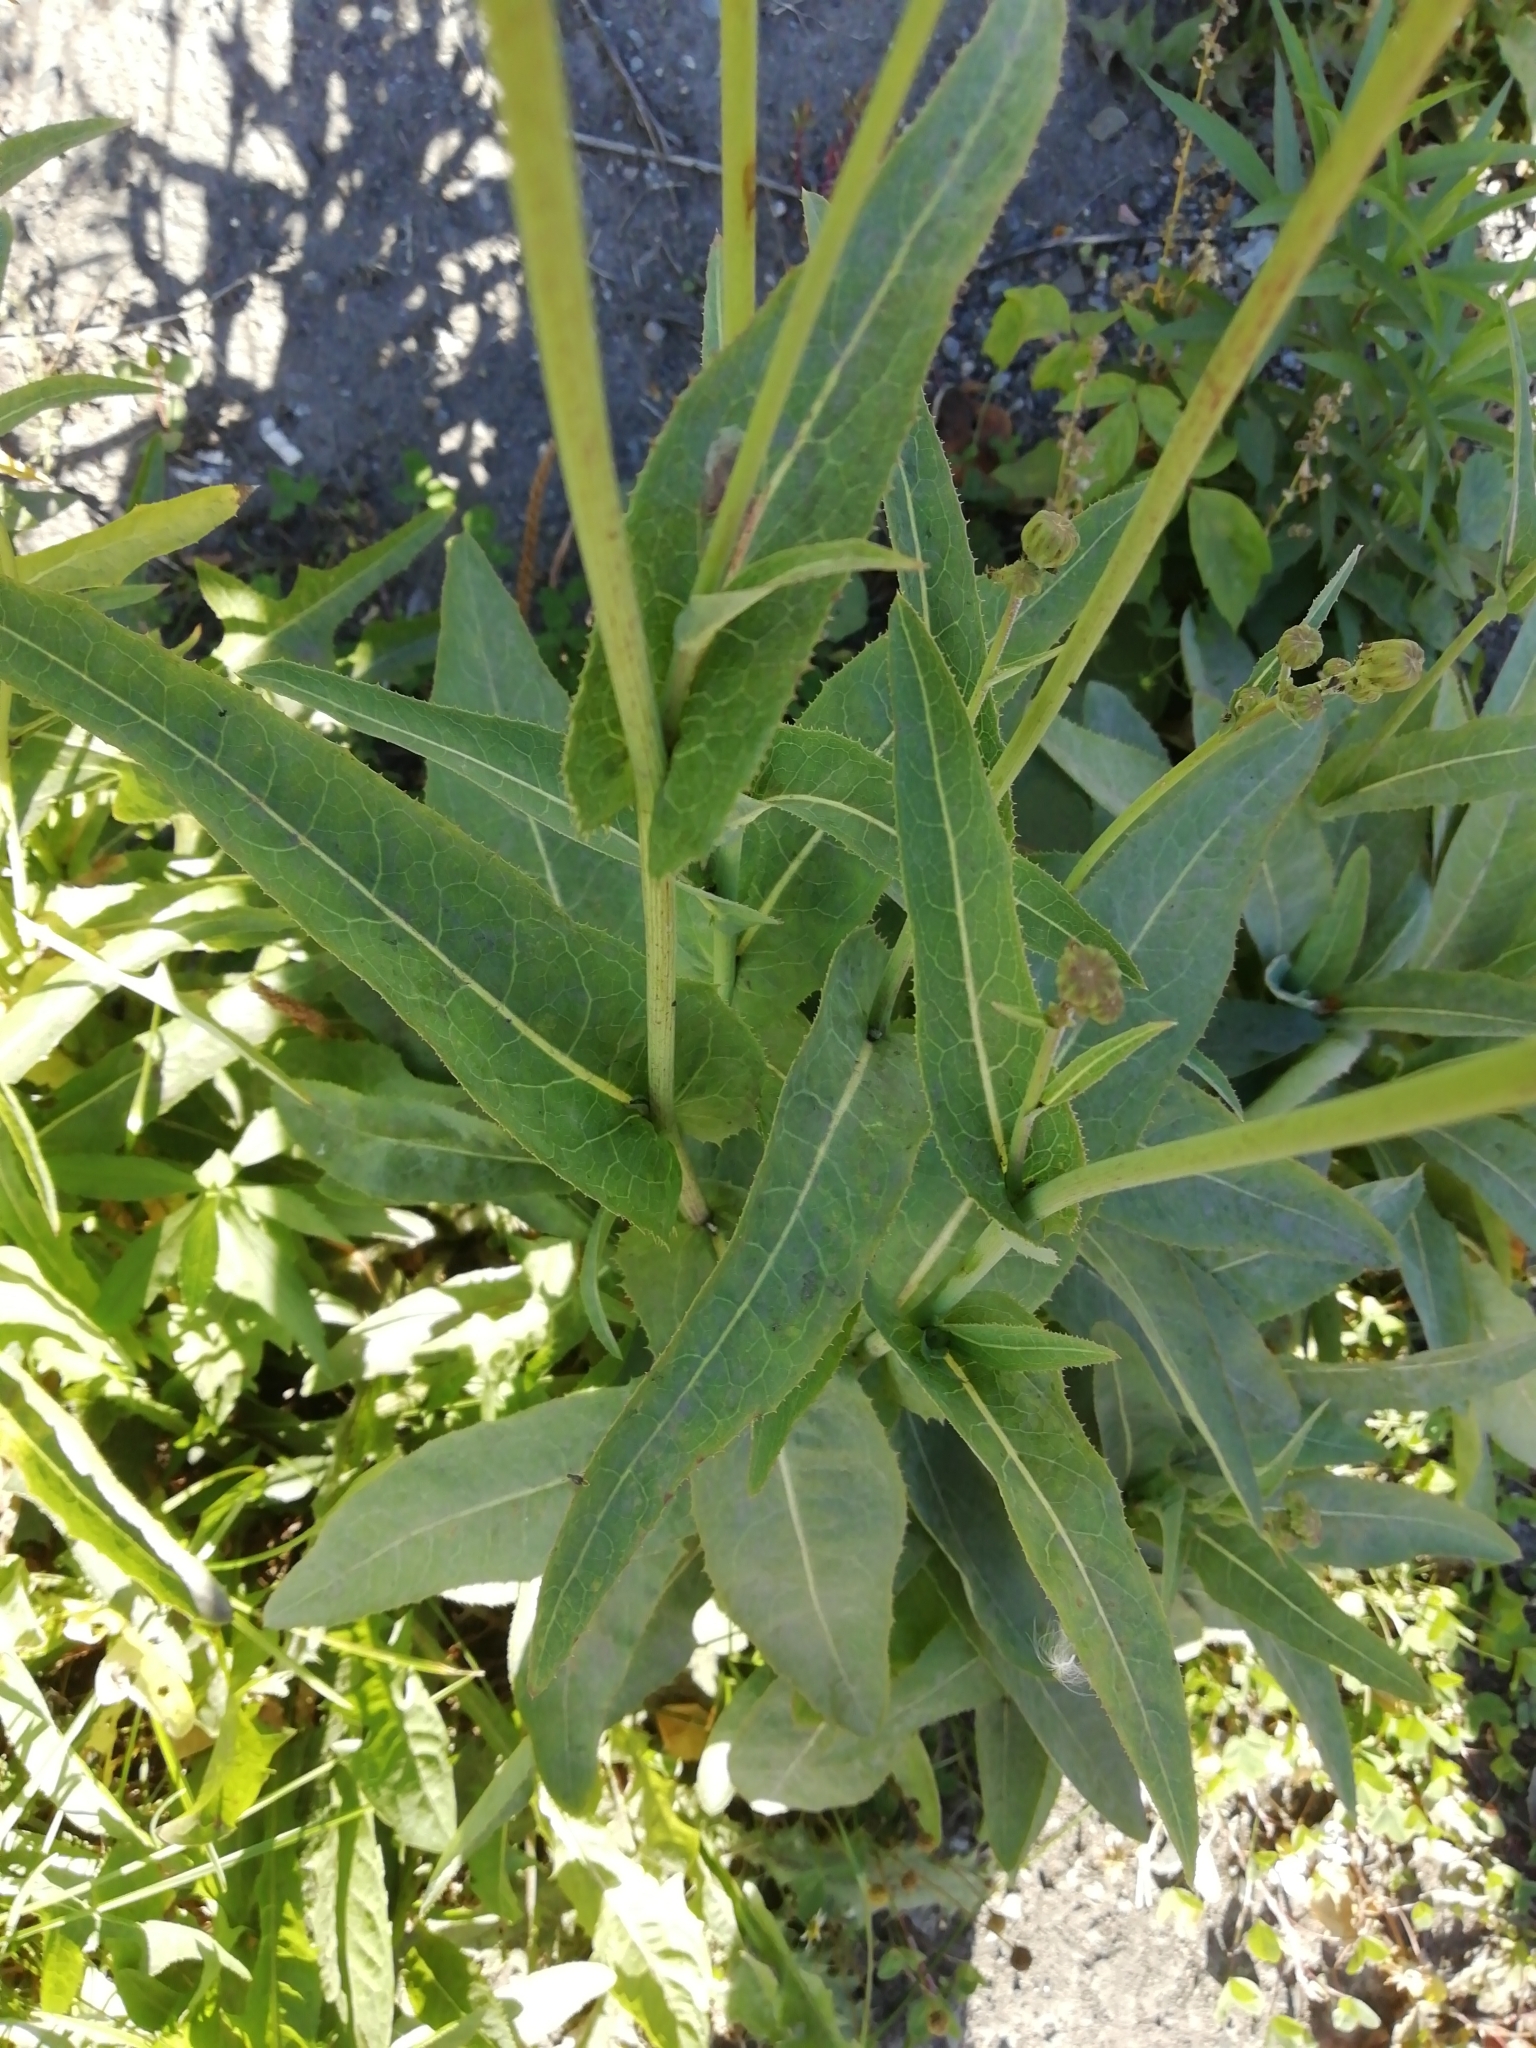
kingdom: Plantae
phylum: Tracheophyta
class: Magnoliopsida
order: Asterales
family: Asteraceae
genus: Sonchus
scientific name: Sonchus arvensis
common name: Perennial sow-thistle
